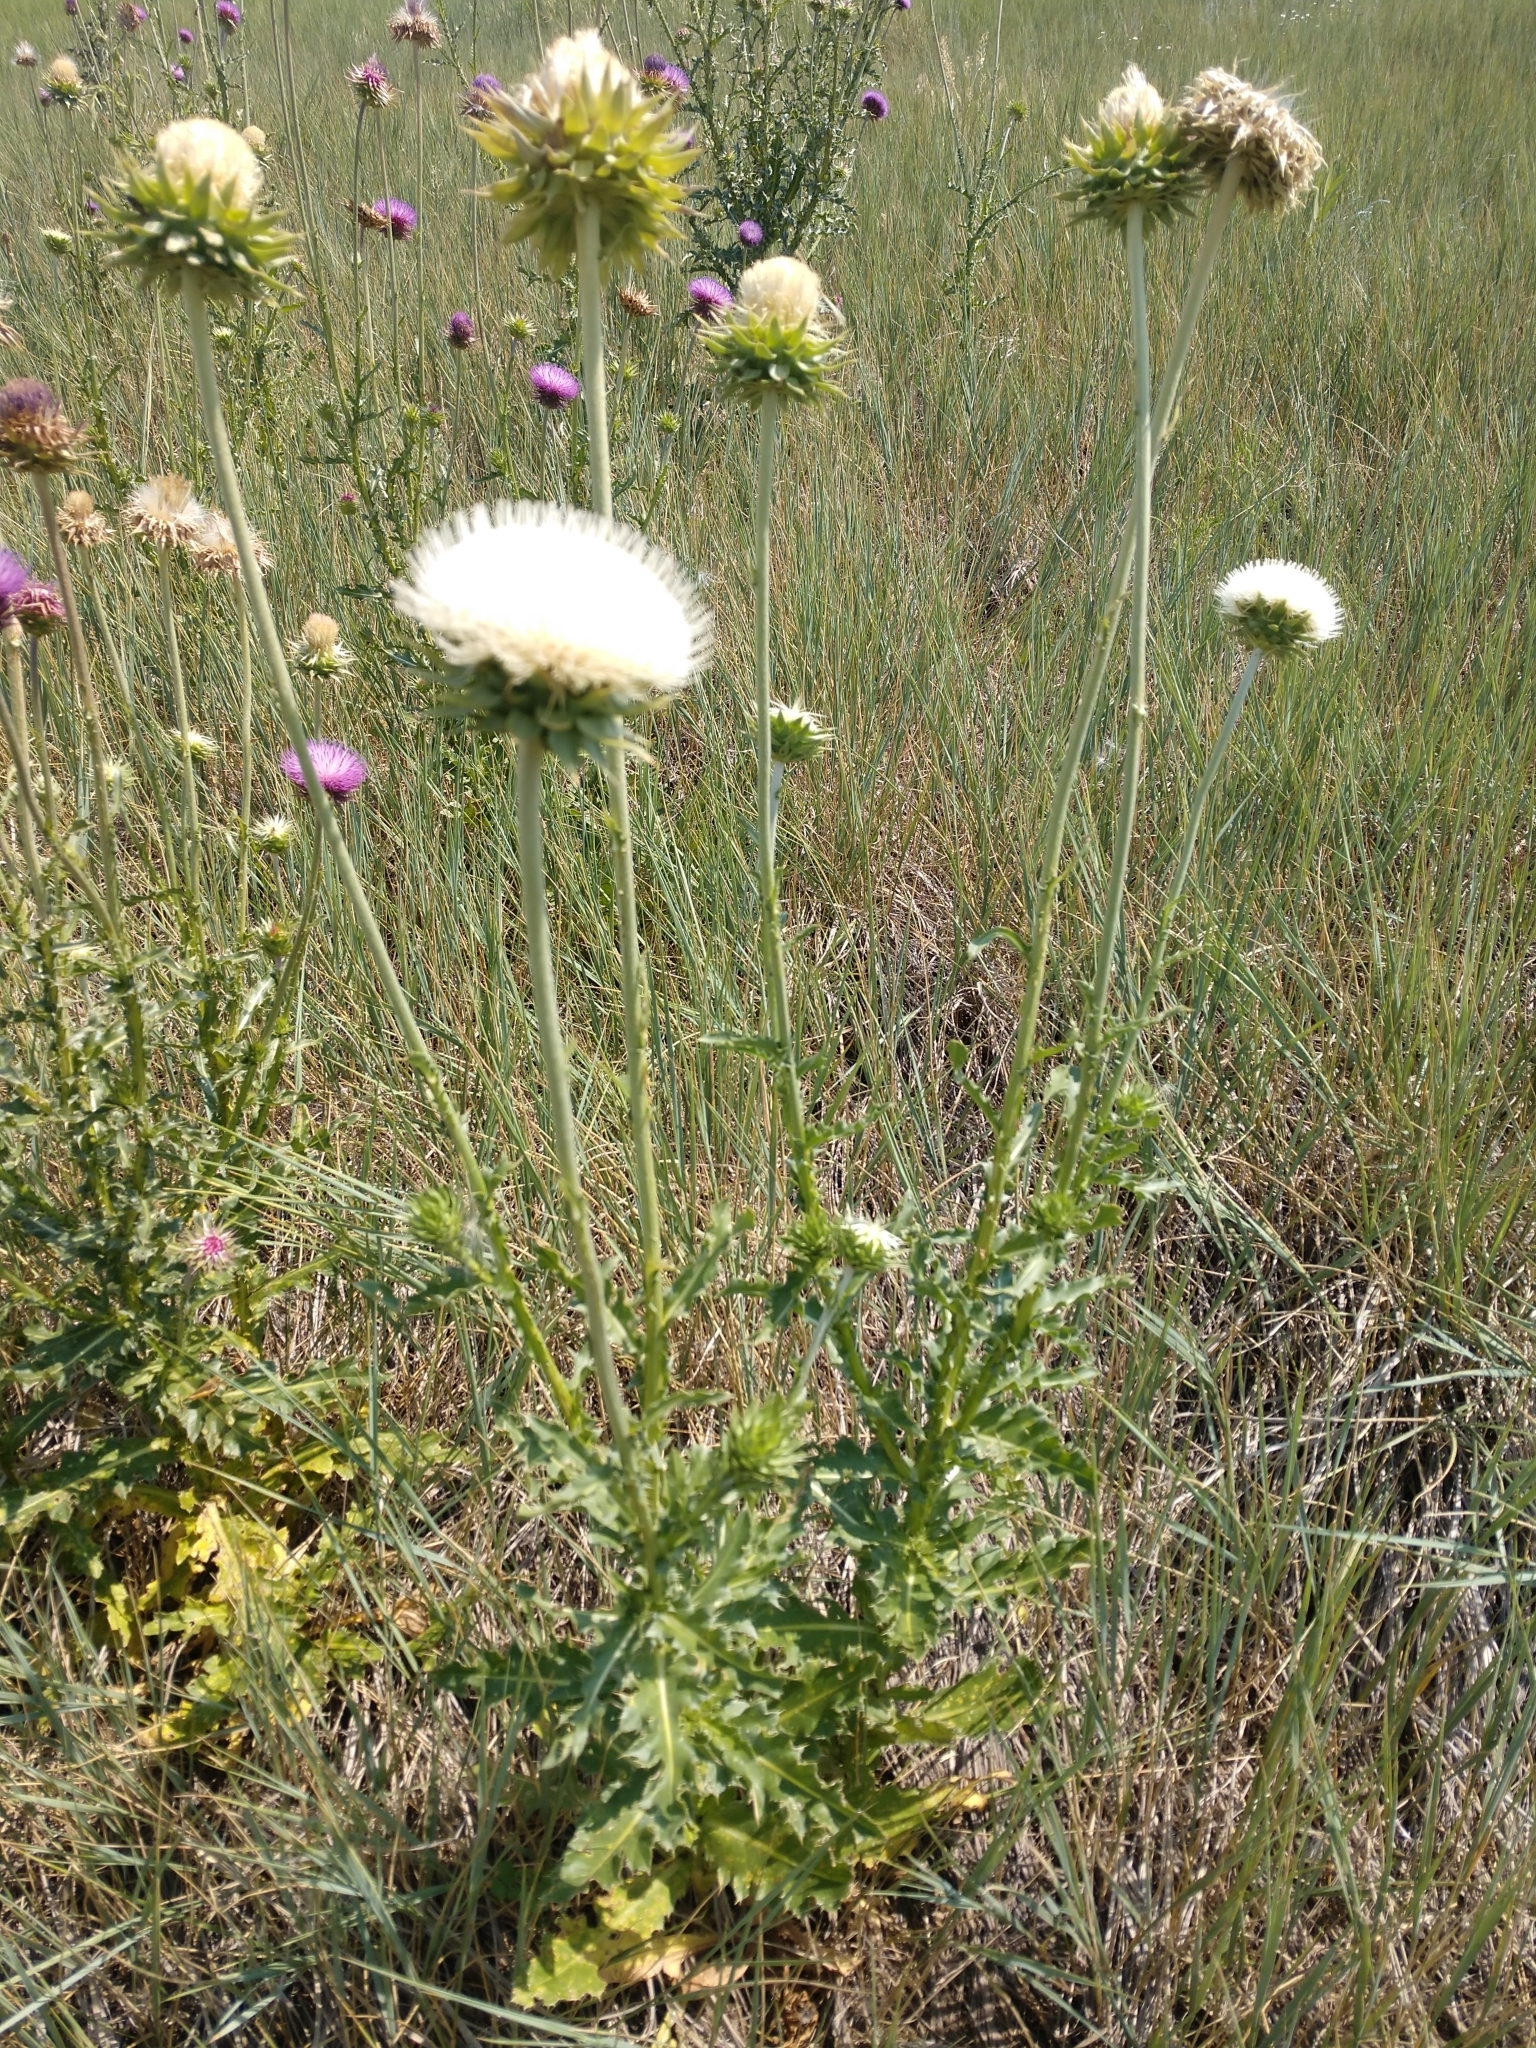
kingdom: Plantae
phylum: Tracheophyta
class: Magnoliopsida
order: Asterales
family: Asteraceae
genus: Carduus
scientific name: Carduus nutans
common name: Musk thistle
